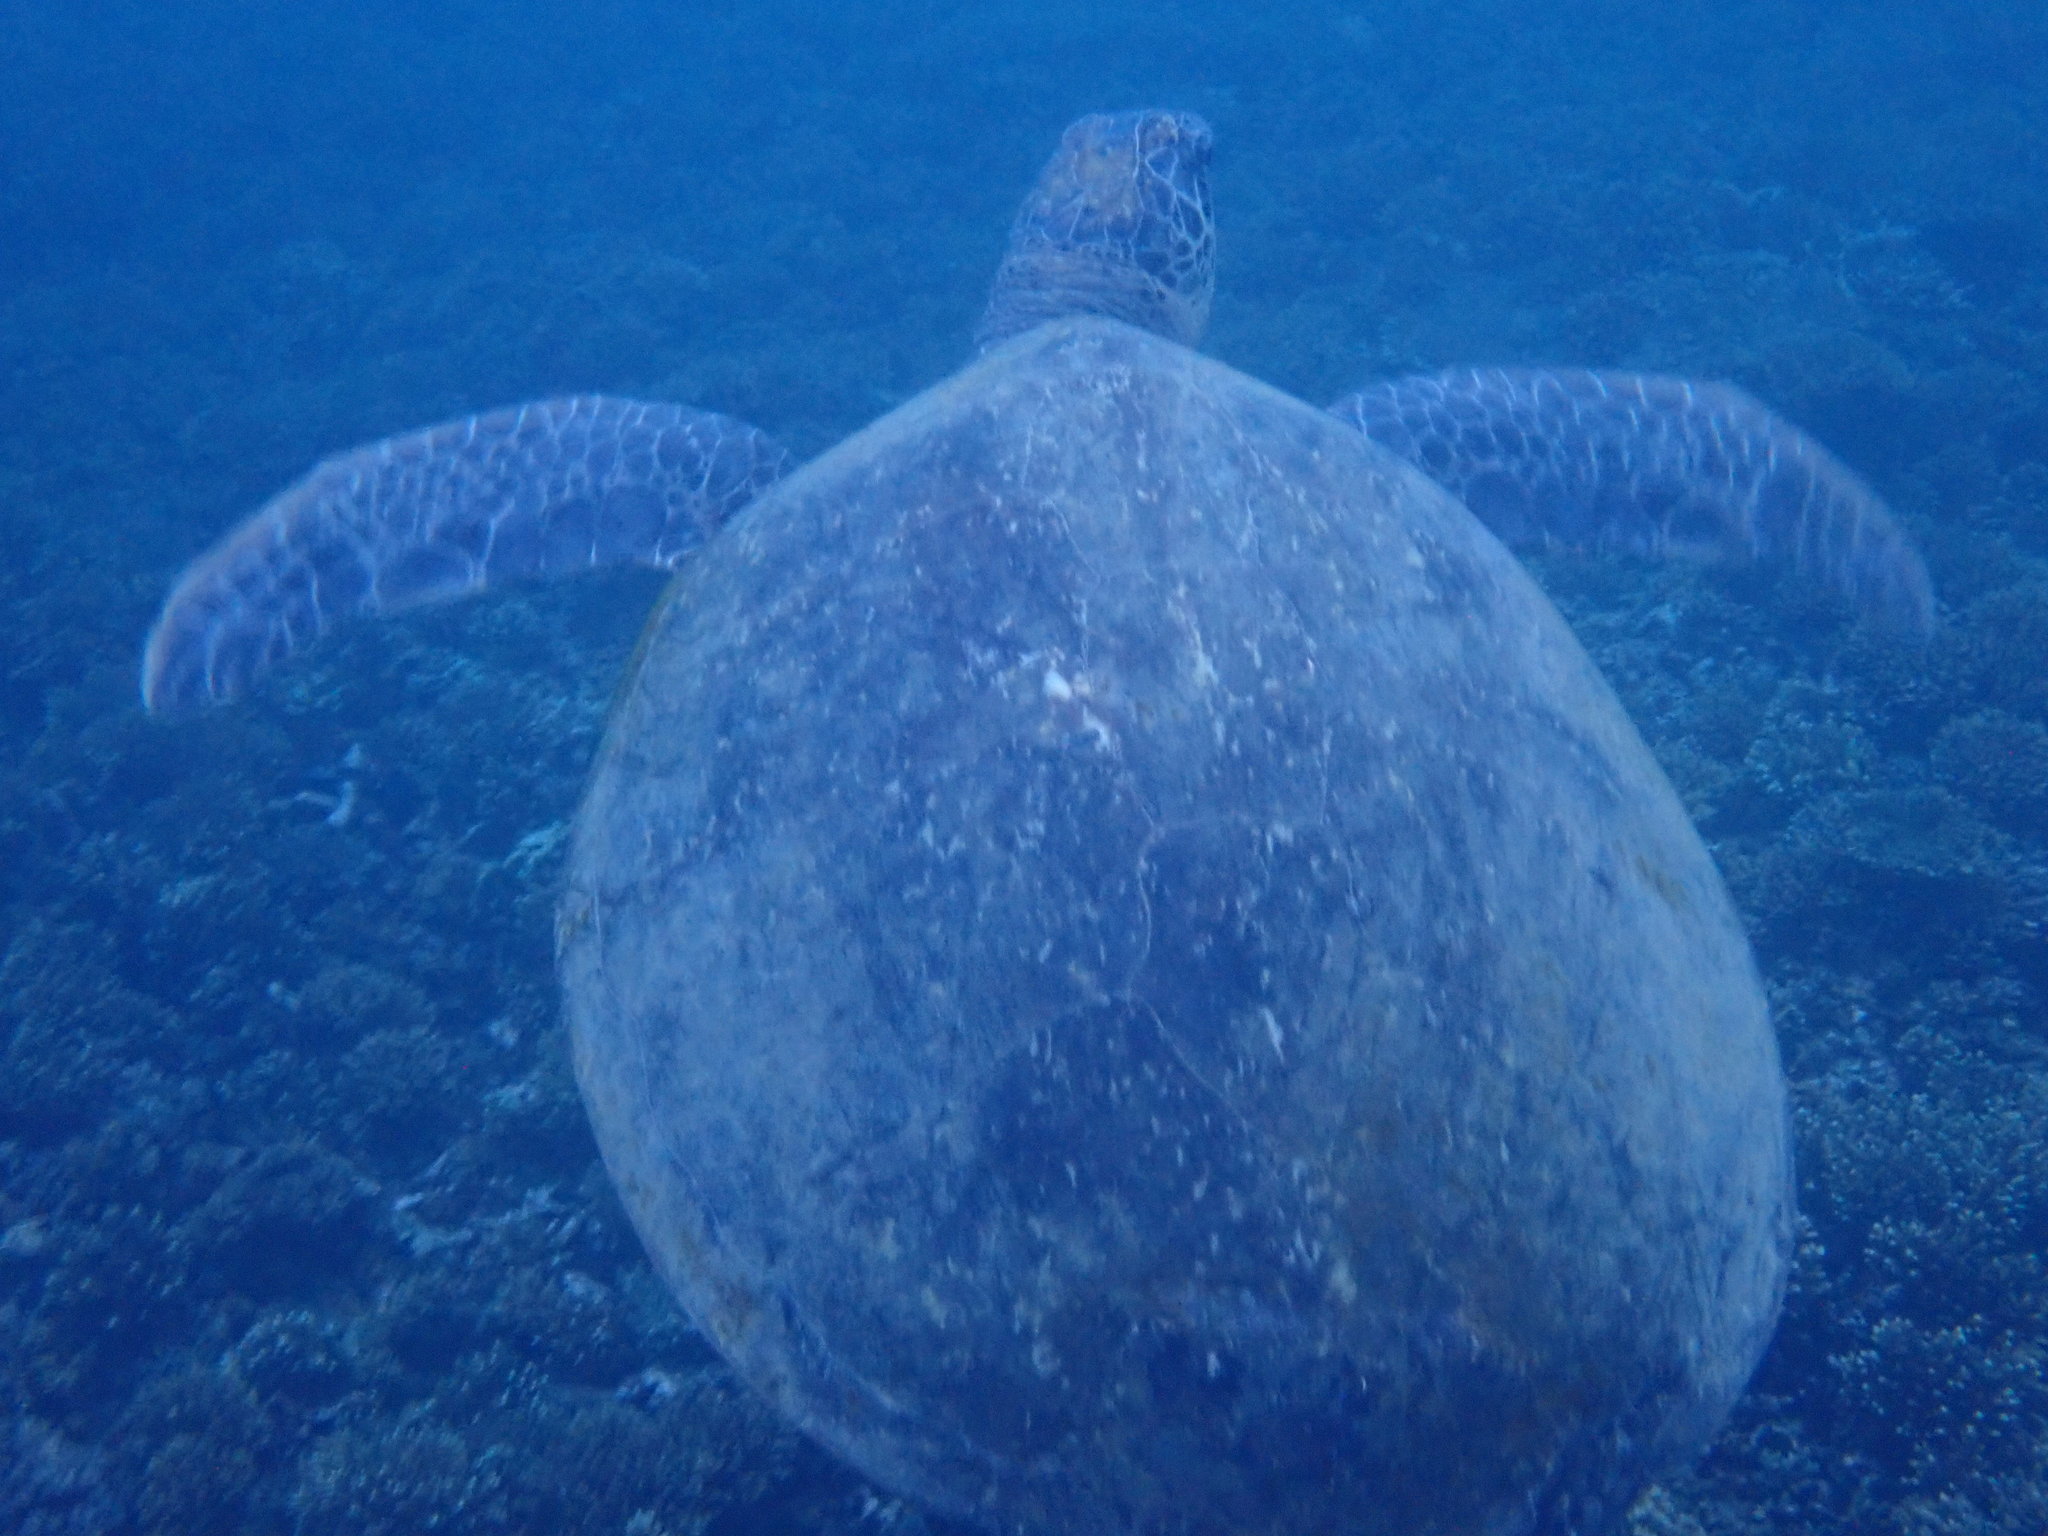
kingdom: Animalia
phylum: Chordata
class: Testudines
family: Cheloniidae
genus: Chelonia
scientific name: Chelonia mydas
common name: Green turtle
